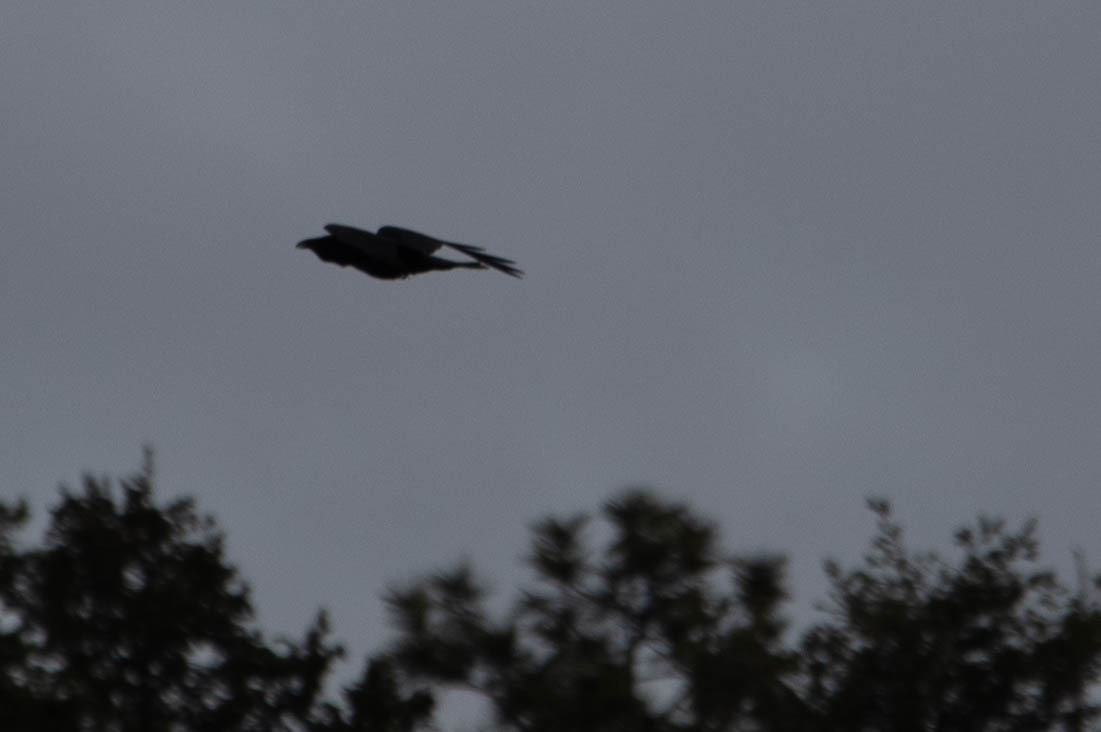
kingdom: Animalia
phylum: Chordata
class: Aves
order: Passeriformes
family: Corvidae
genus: Corvus
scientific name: Corvus corax
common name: Common raven
